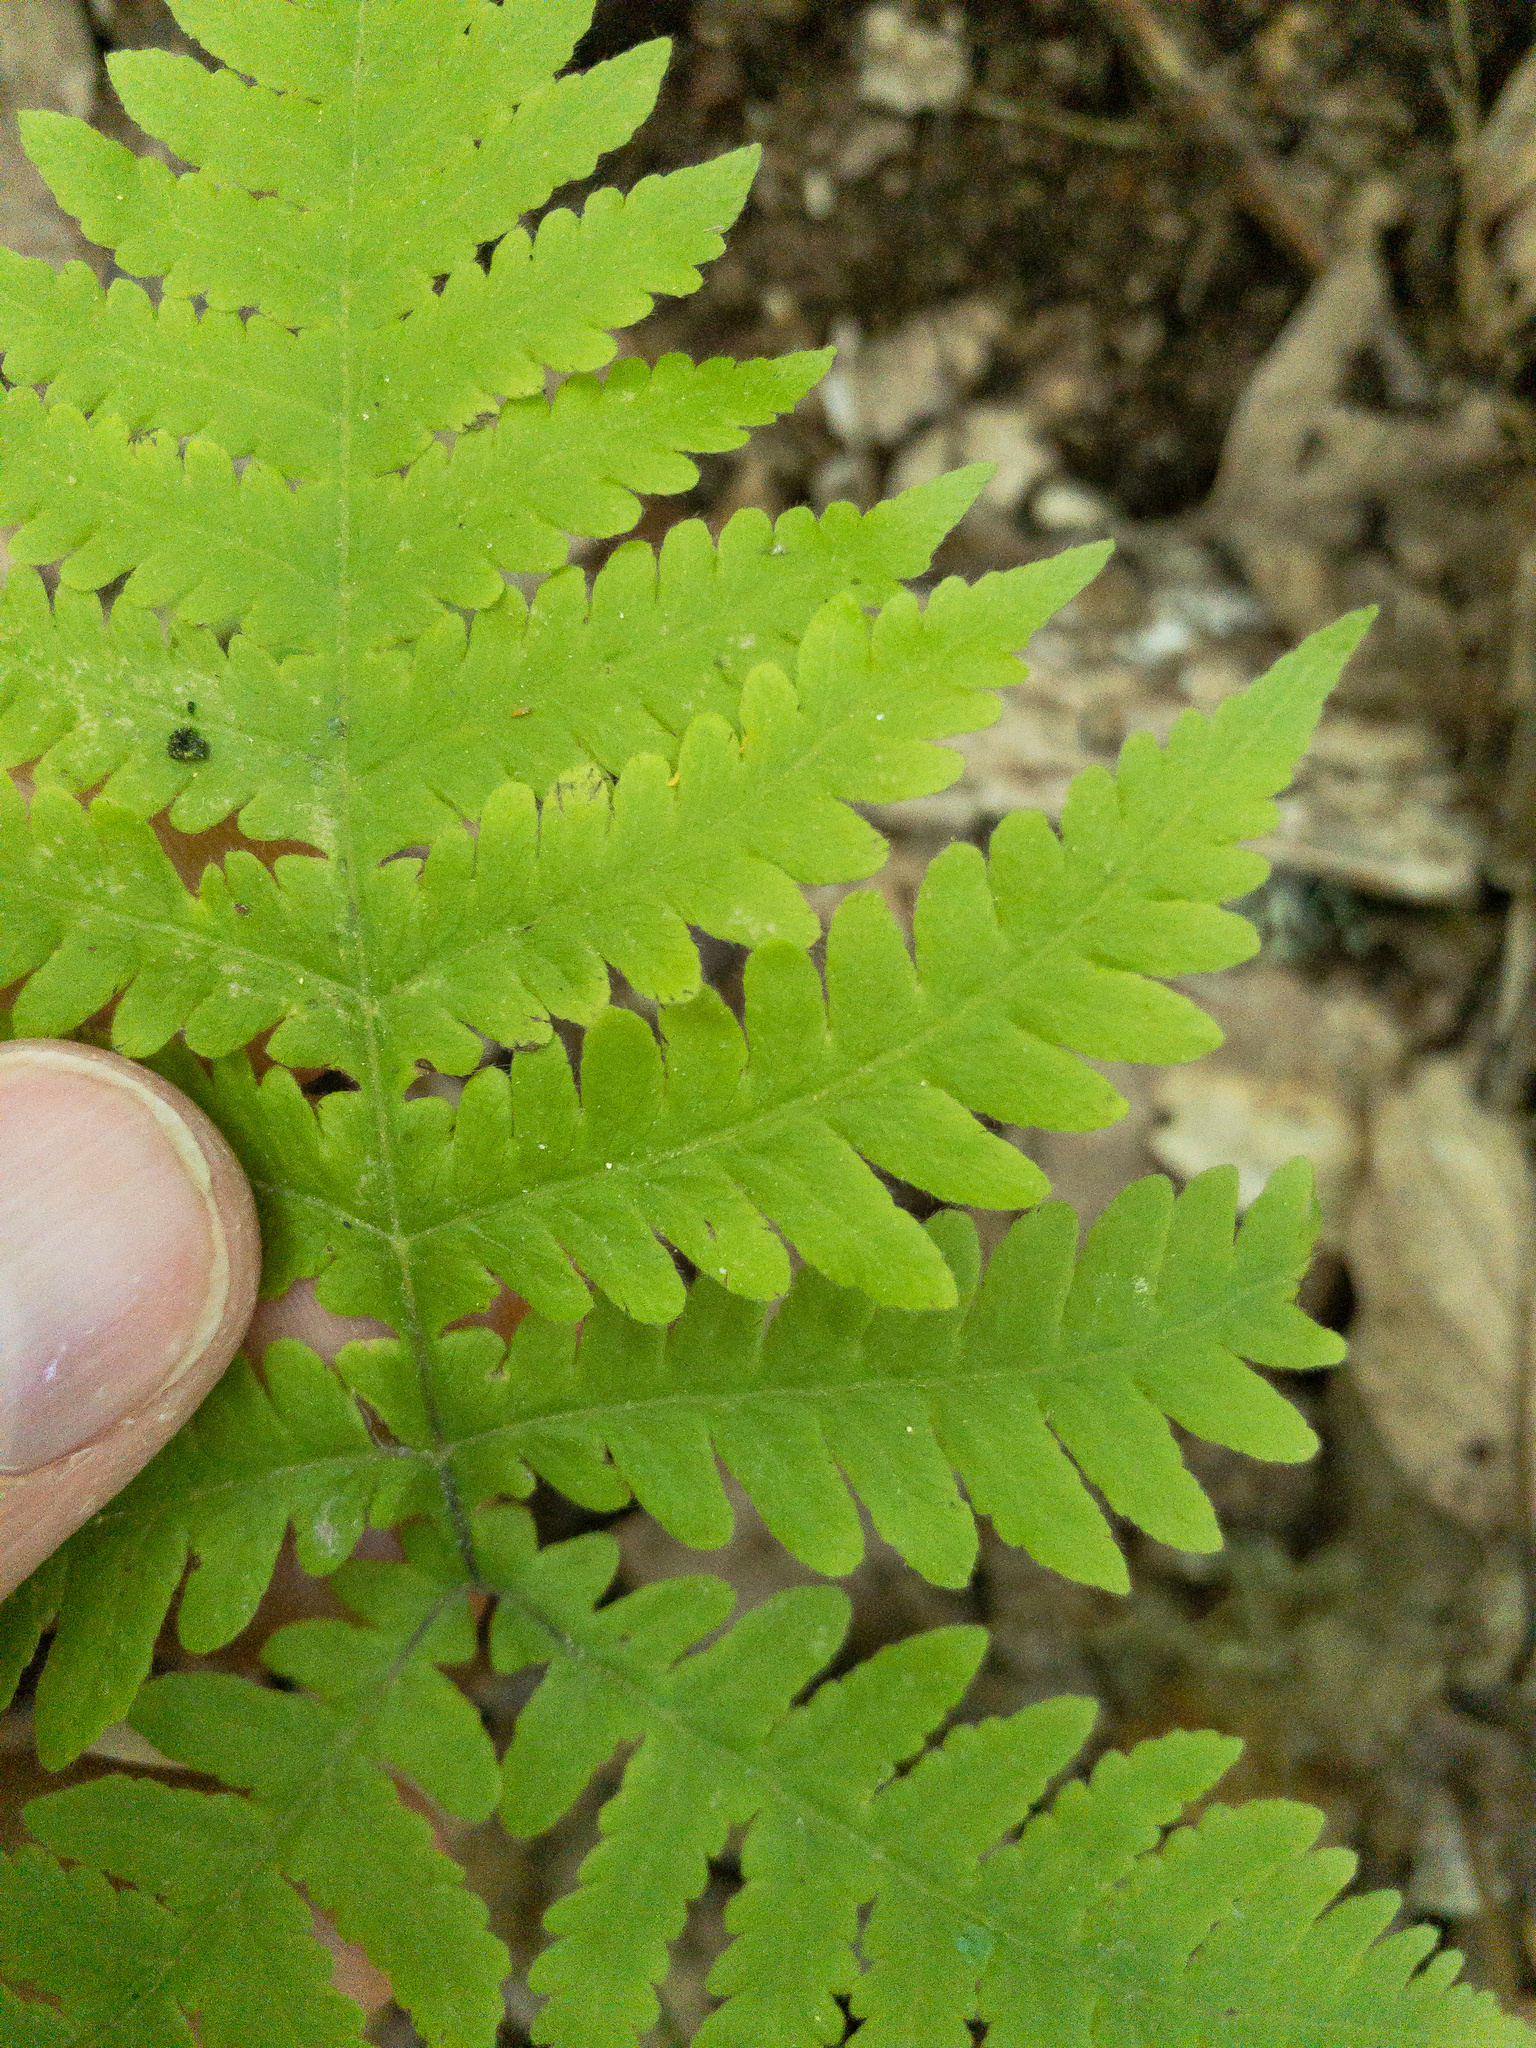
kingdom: Plantae
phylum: Tracheophyta
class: Polypodiopsida
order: Polypodiales
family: Thelypteridaceae
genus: Phegopteris
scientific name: Phegopteris hexagonoptera
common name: Broad beech fern
